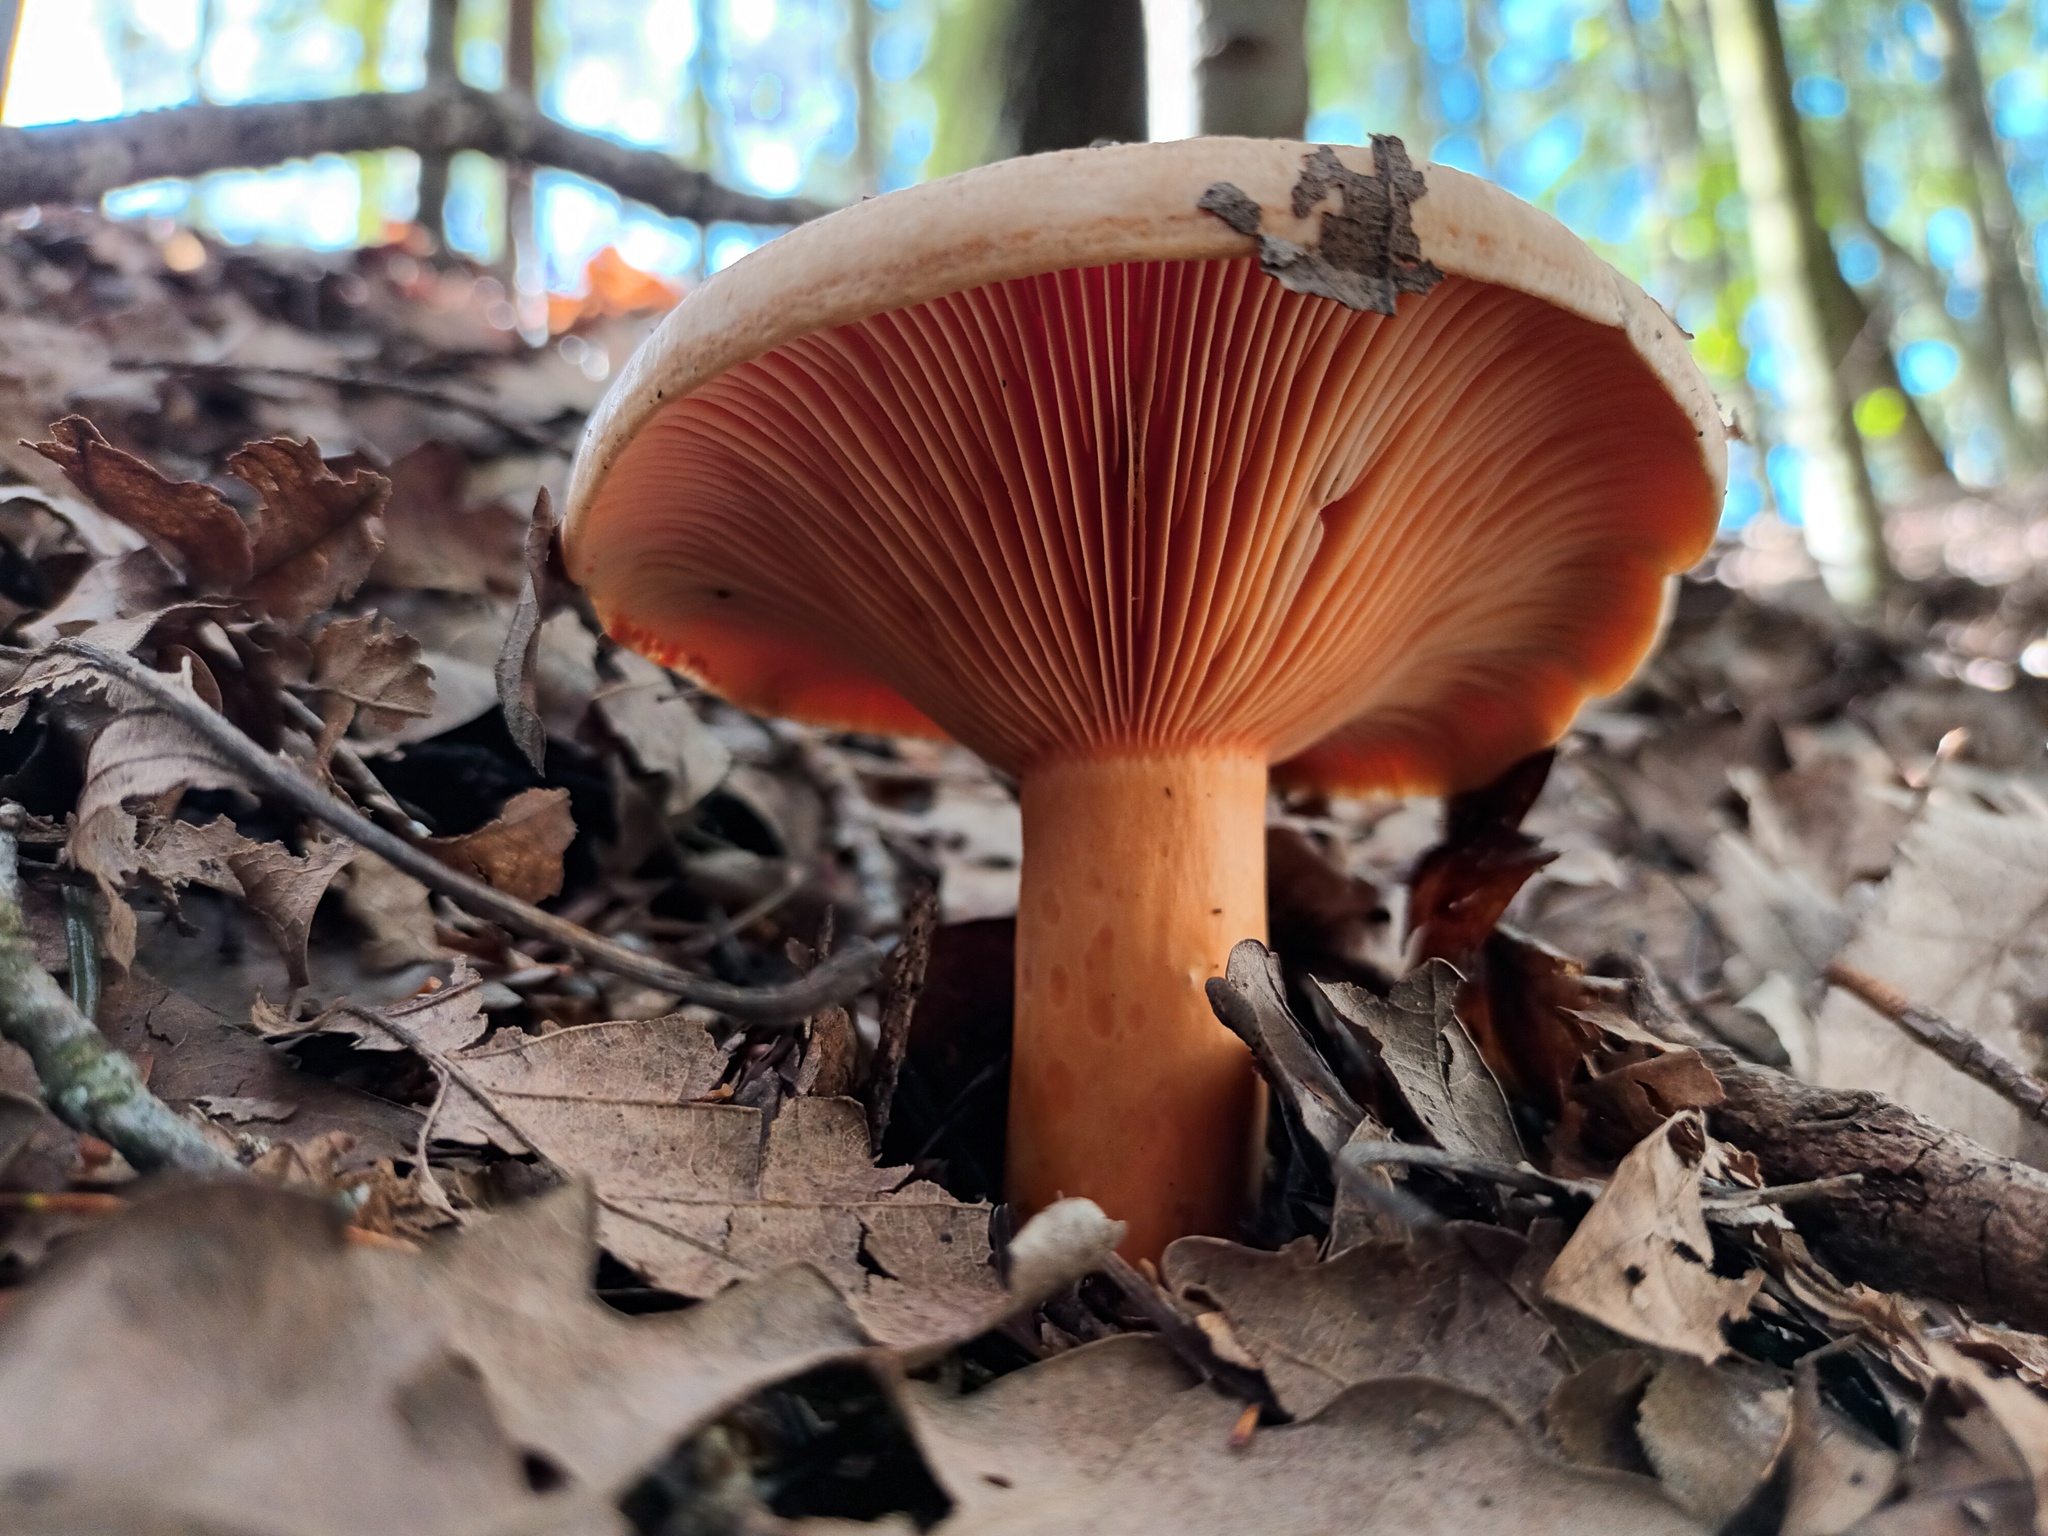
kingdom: Fungi
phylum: Basidiomycota
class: Agaricomycetes
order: Russulales
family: Russulaceae
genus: Lactarius
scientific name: Lactarius deliciosus
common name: Saffron milk-cap
